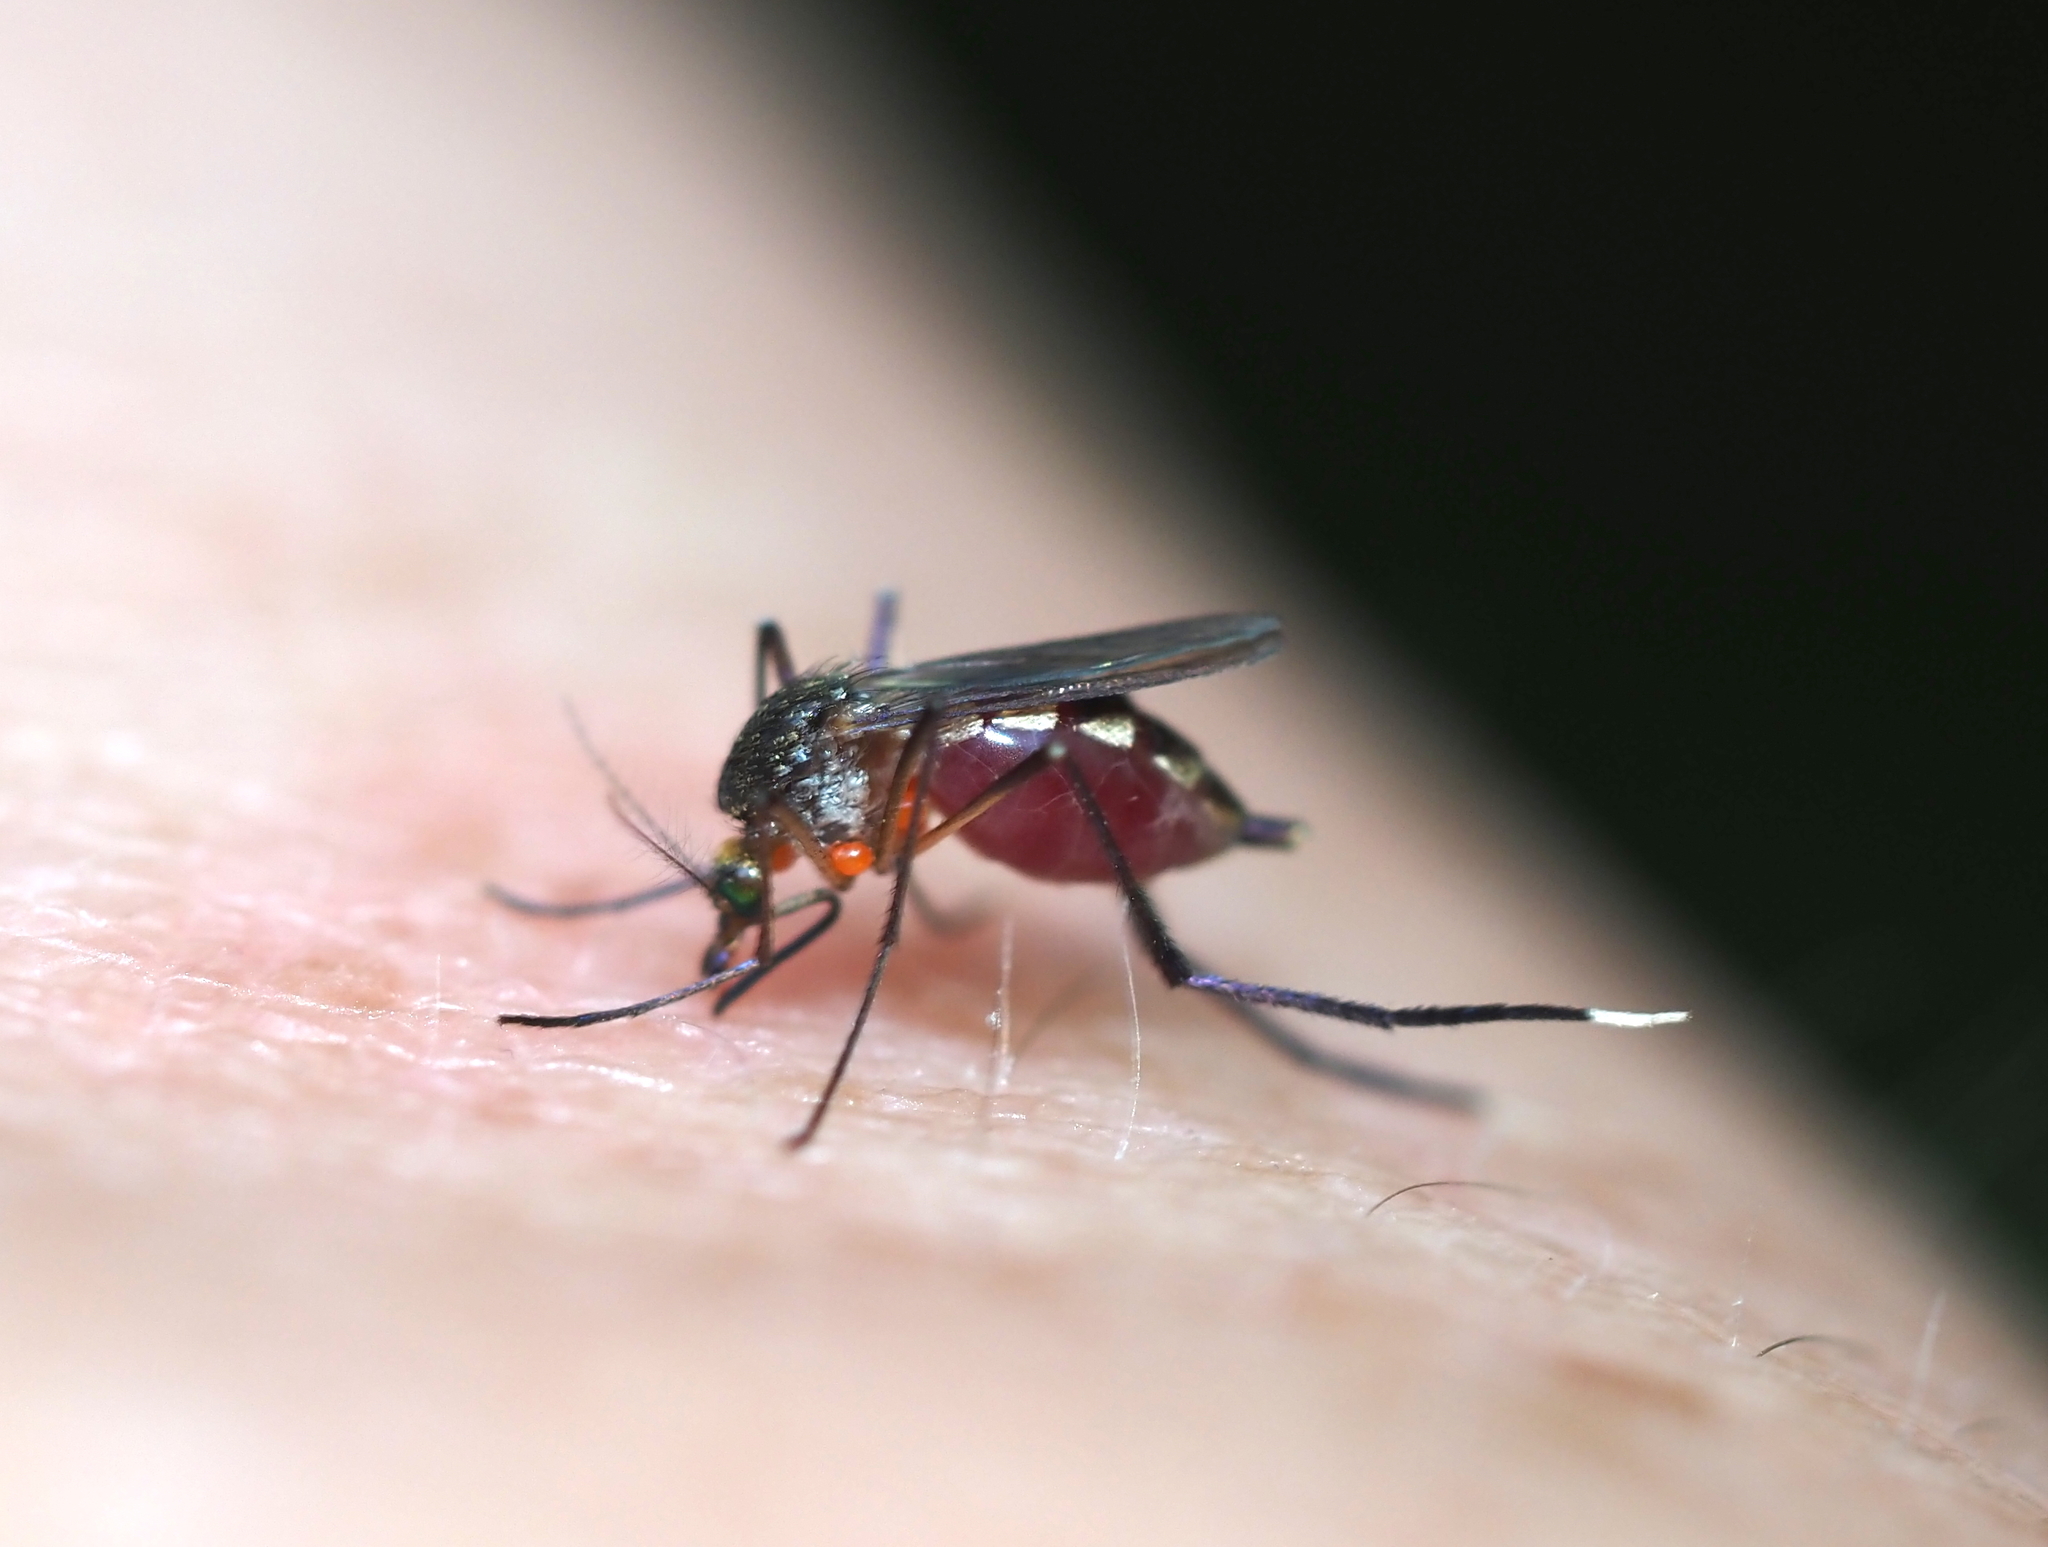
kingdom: Animalia
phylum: Arthropoda
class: Insecta
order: Diptera
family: Culicidae
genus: Psorophora
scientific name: Psorophora ferox
